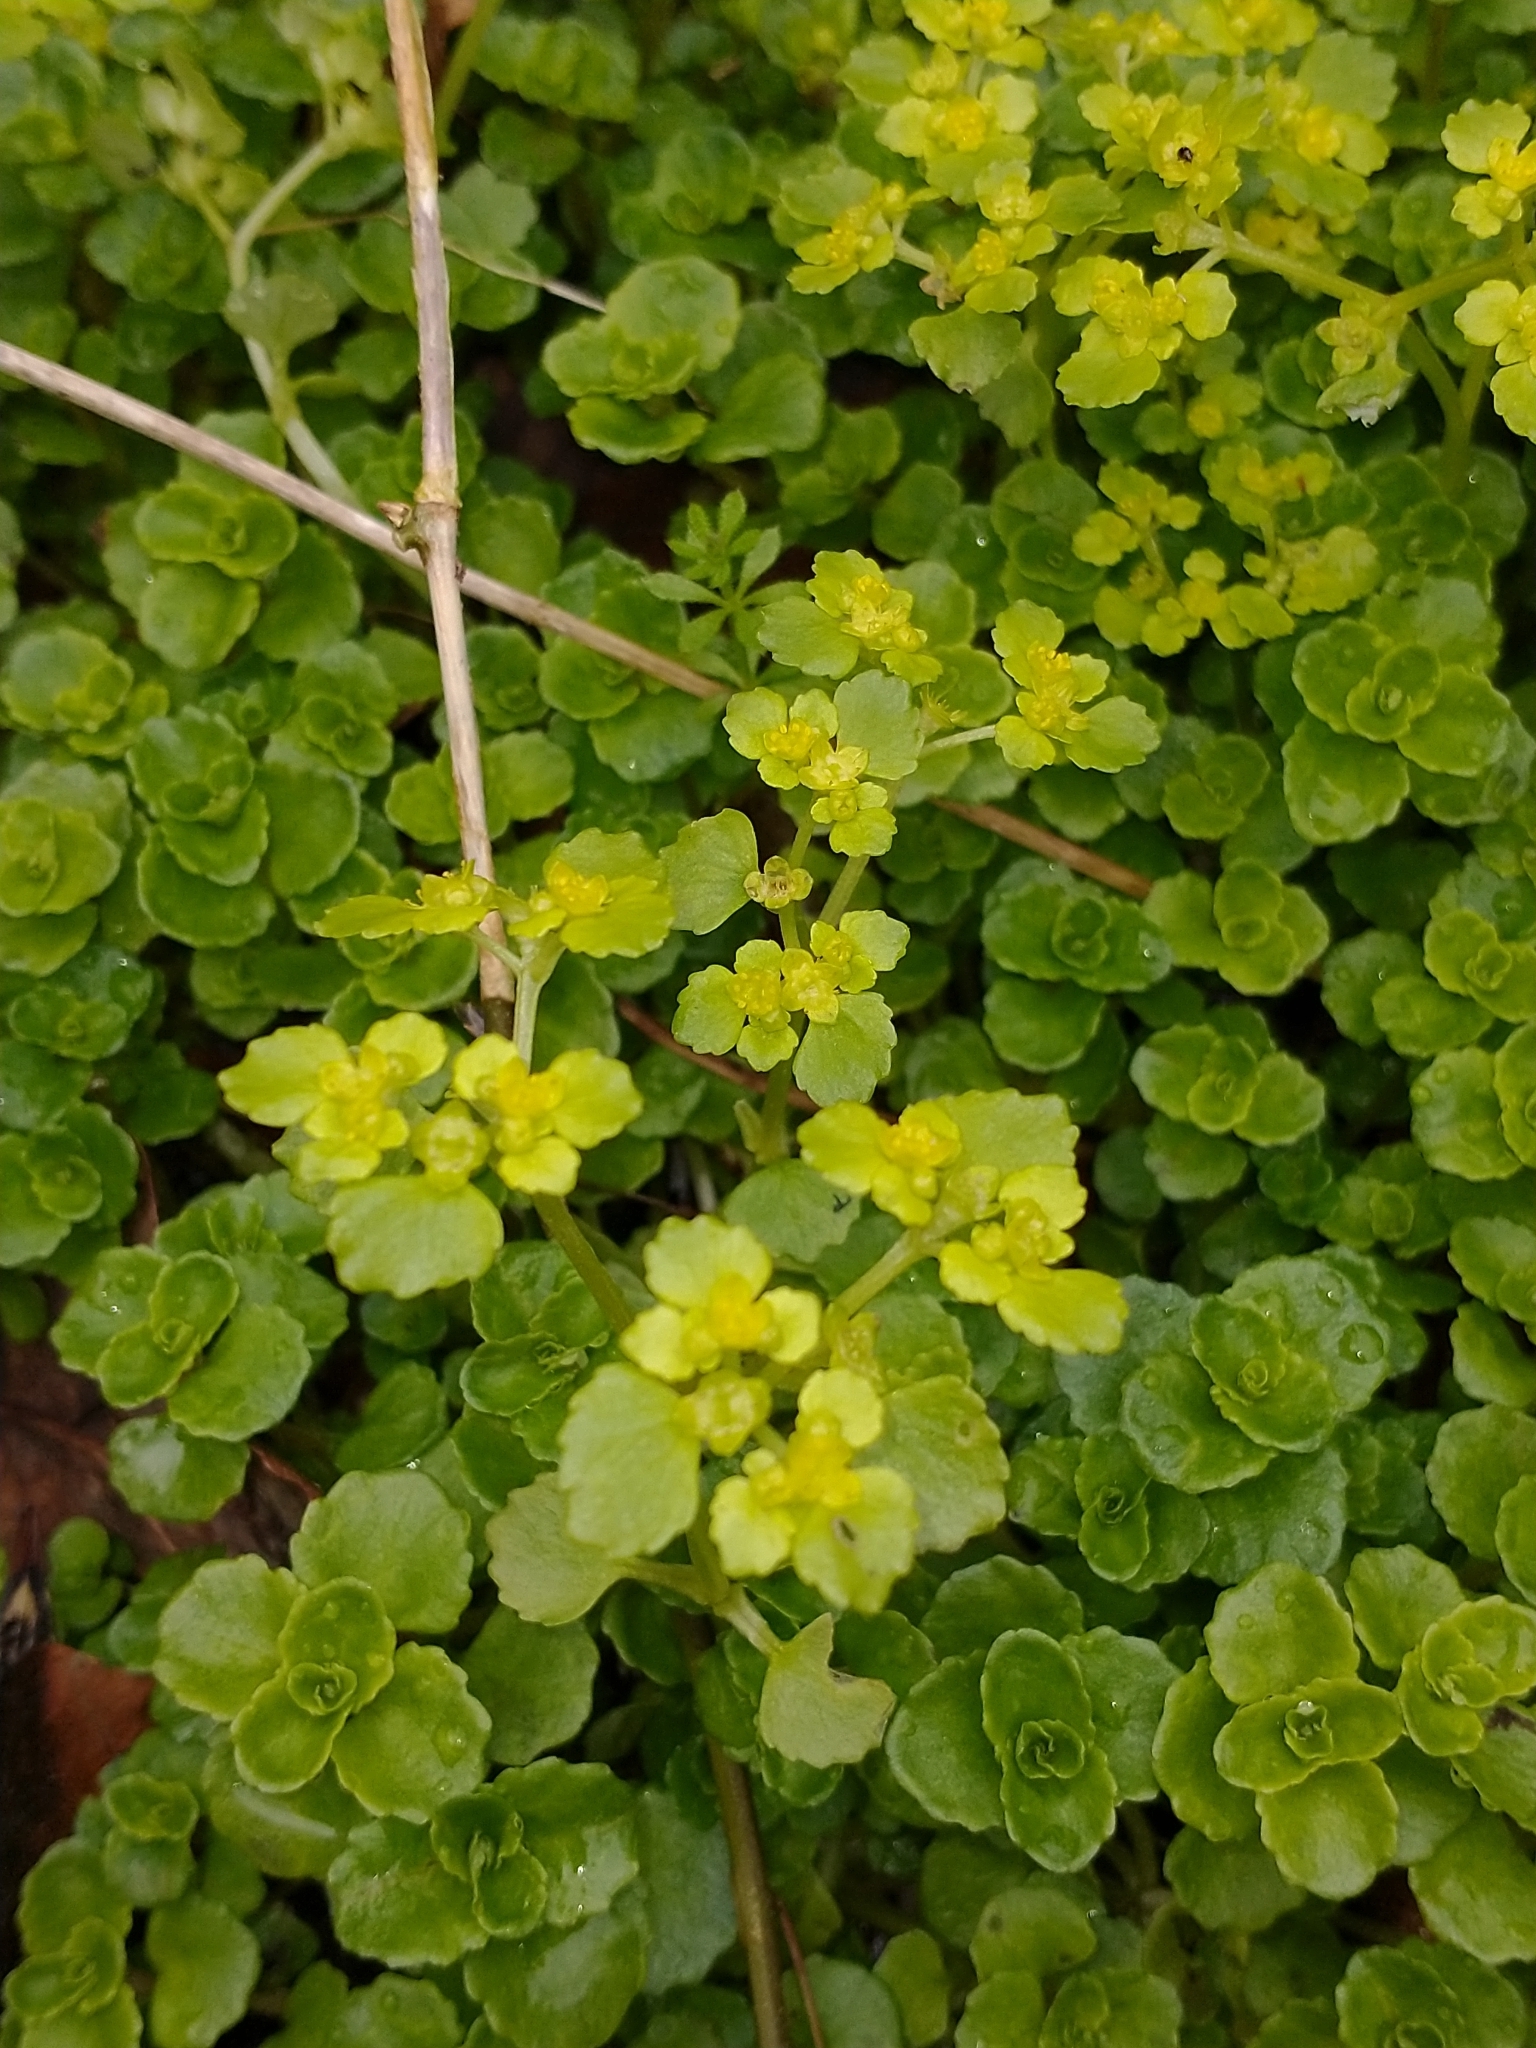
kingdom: Plantae
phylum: Tracheophyta
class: Magnoliopsida
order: Saxifragales
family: Saxifragaceae
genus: Chrysosplenium
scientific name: Chrysosplenium oppositifolium
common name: Opposite-leaved golden-saxifrage
